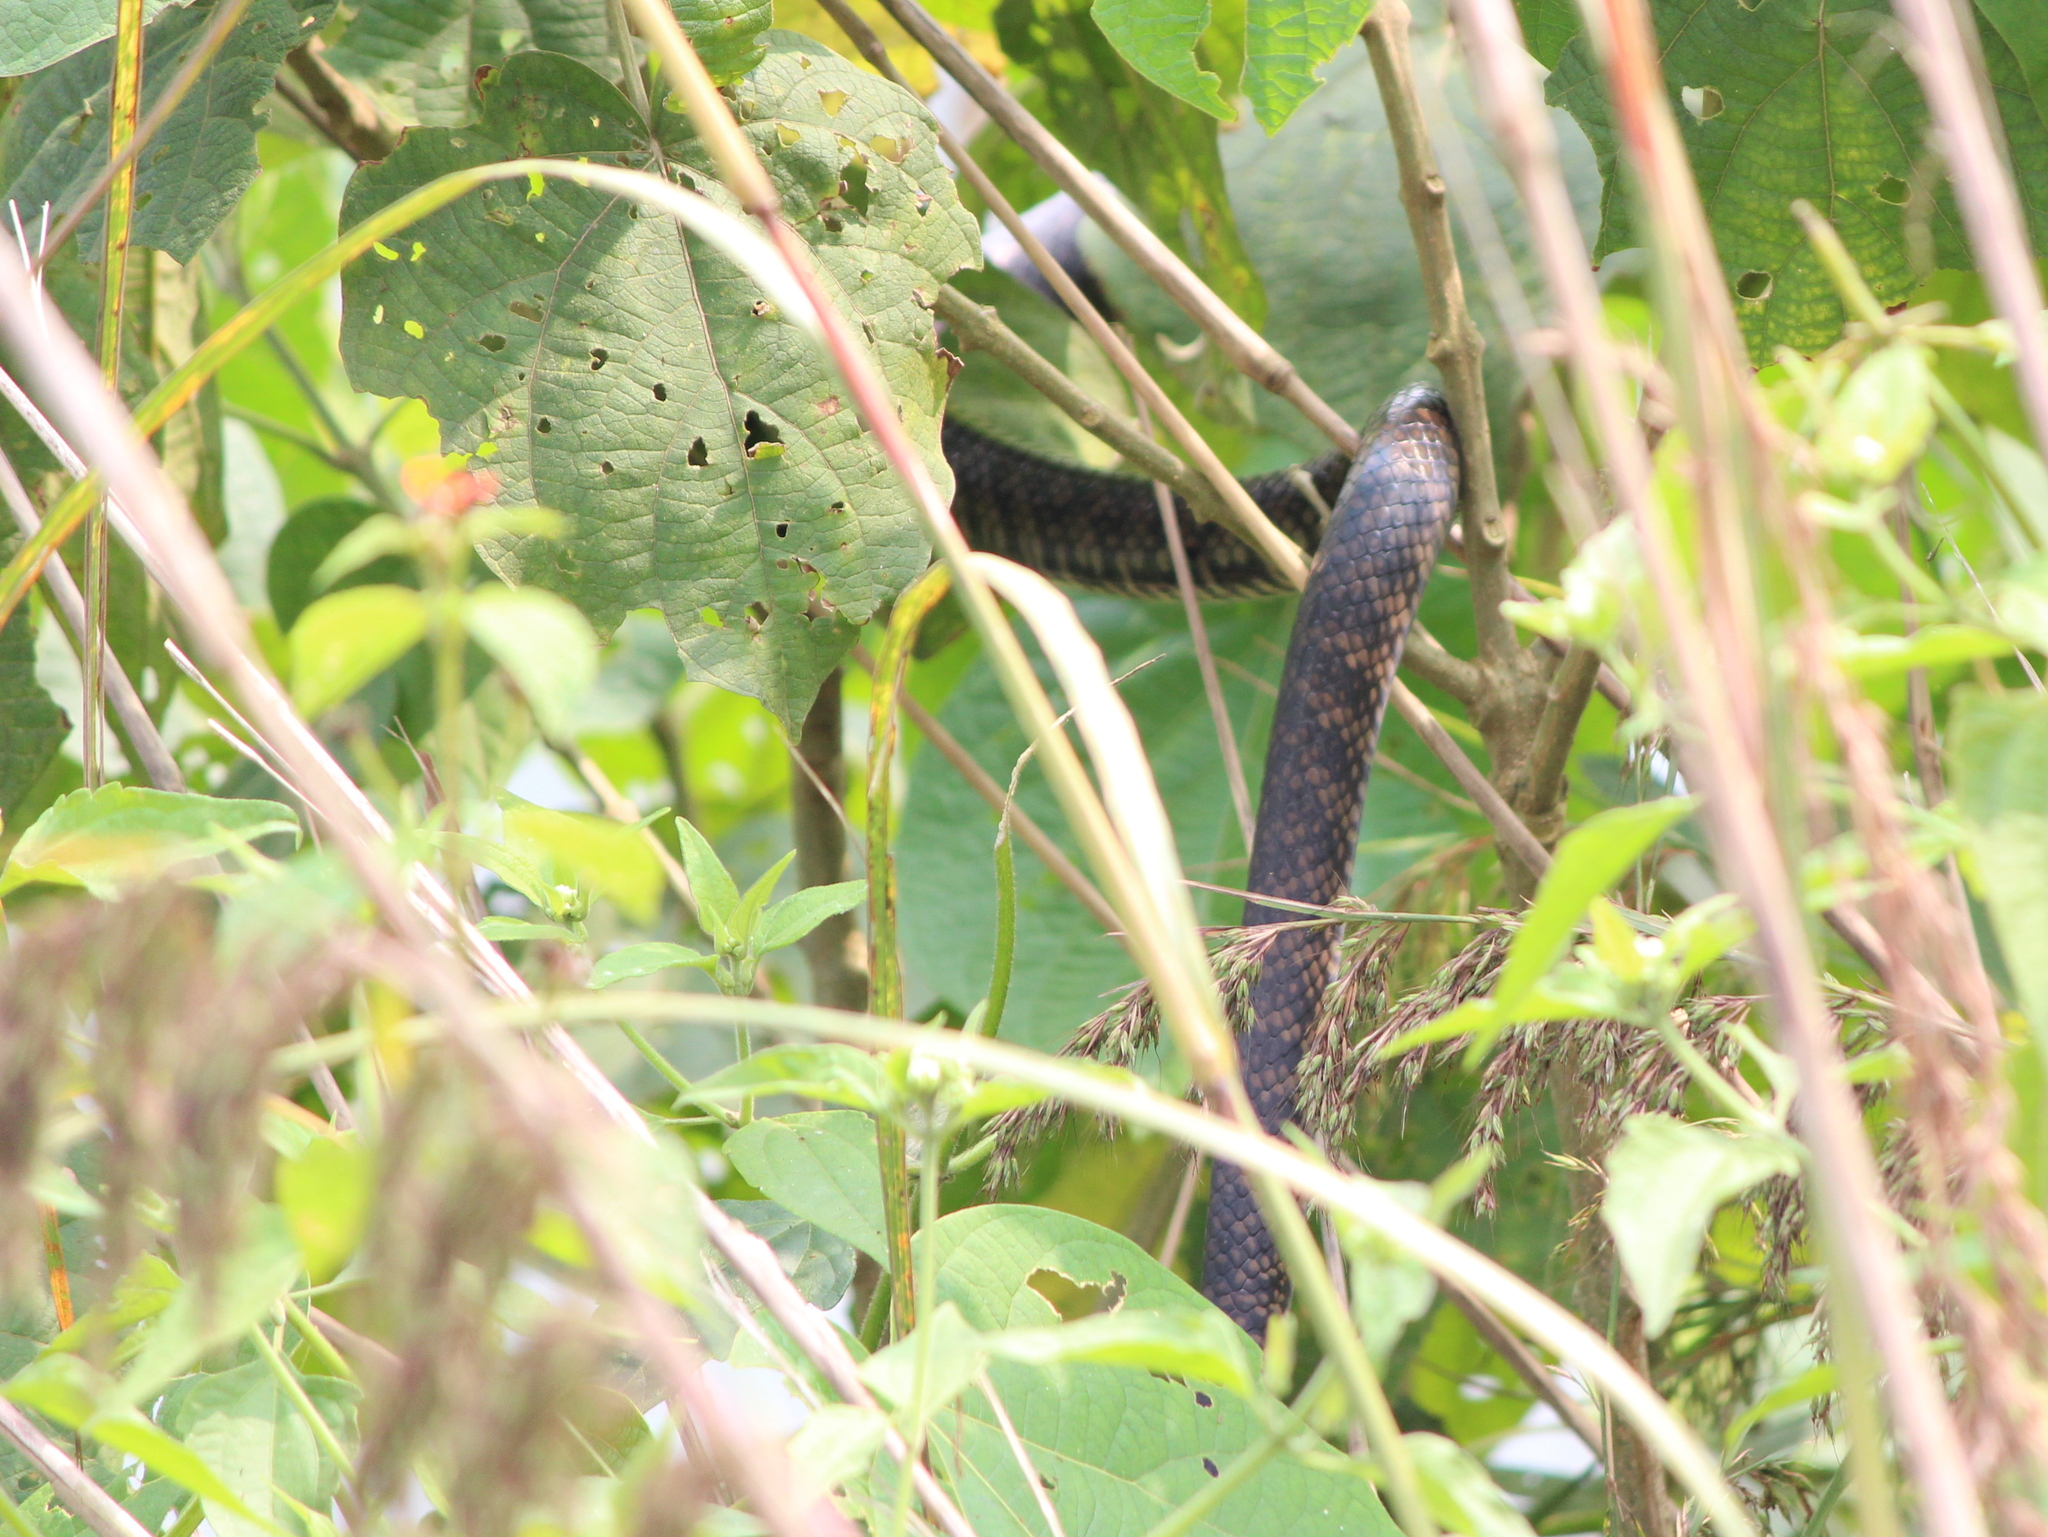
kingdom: Animalia
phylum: Chordata
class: Squamata
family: Colubridae
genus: Ptyas
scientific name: Ptyas mucosa
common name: Oriental ratsnake
